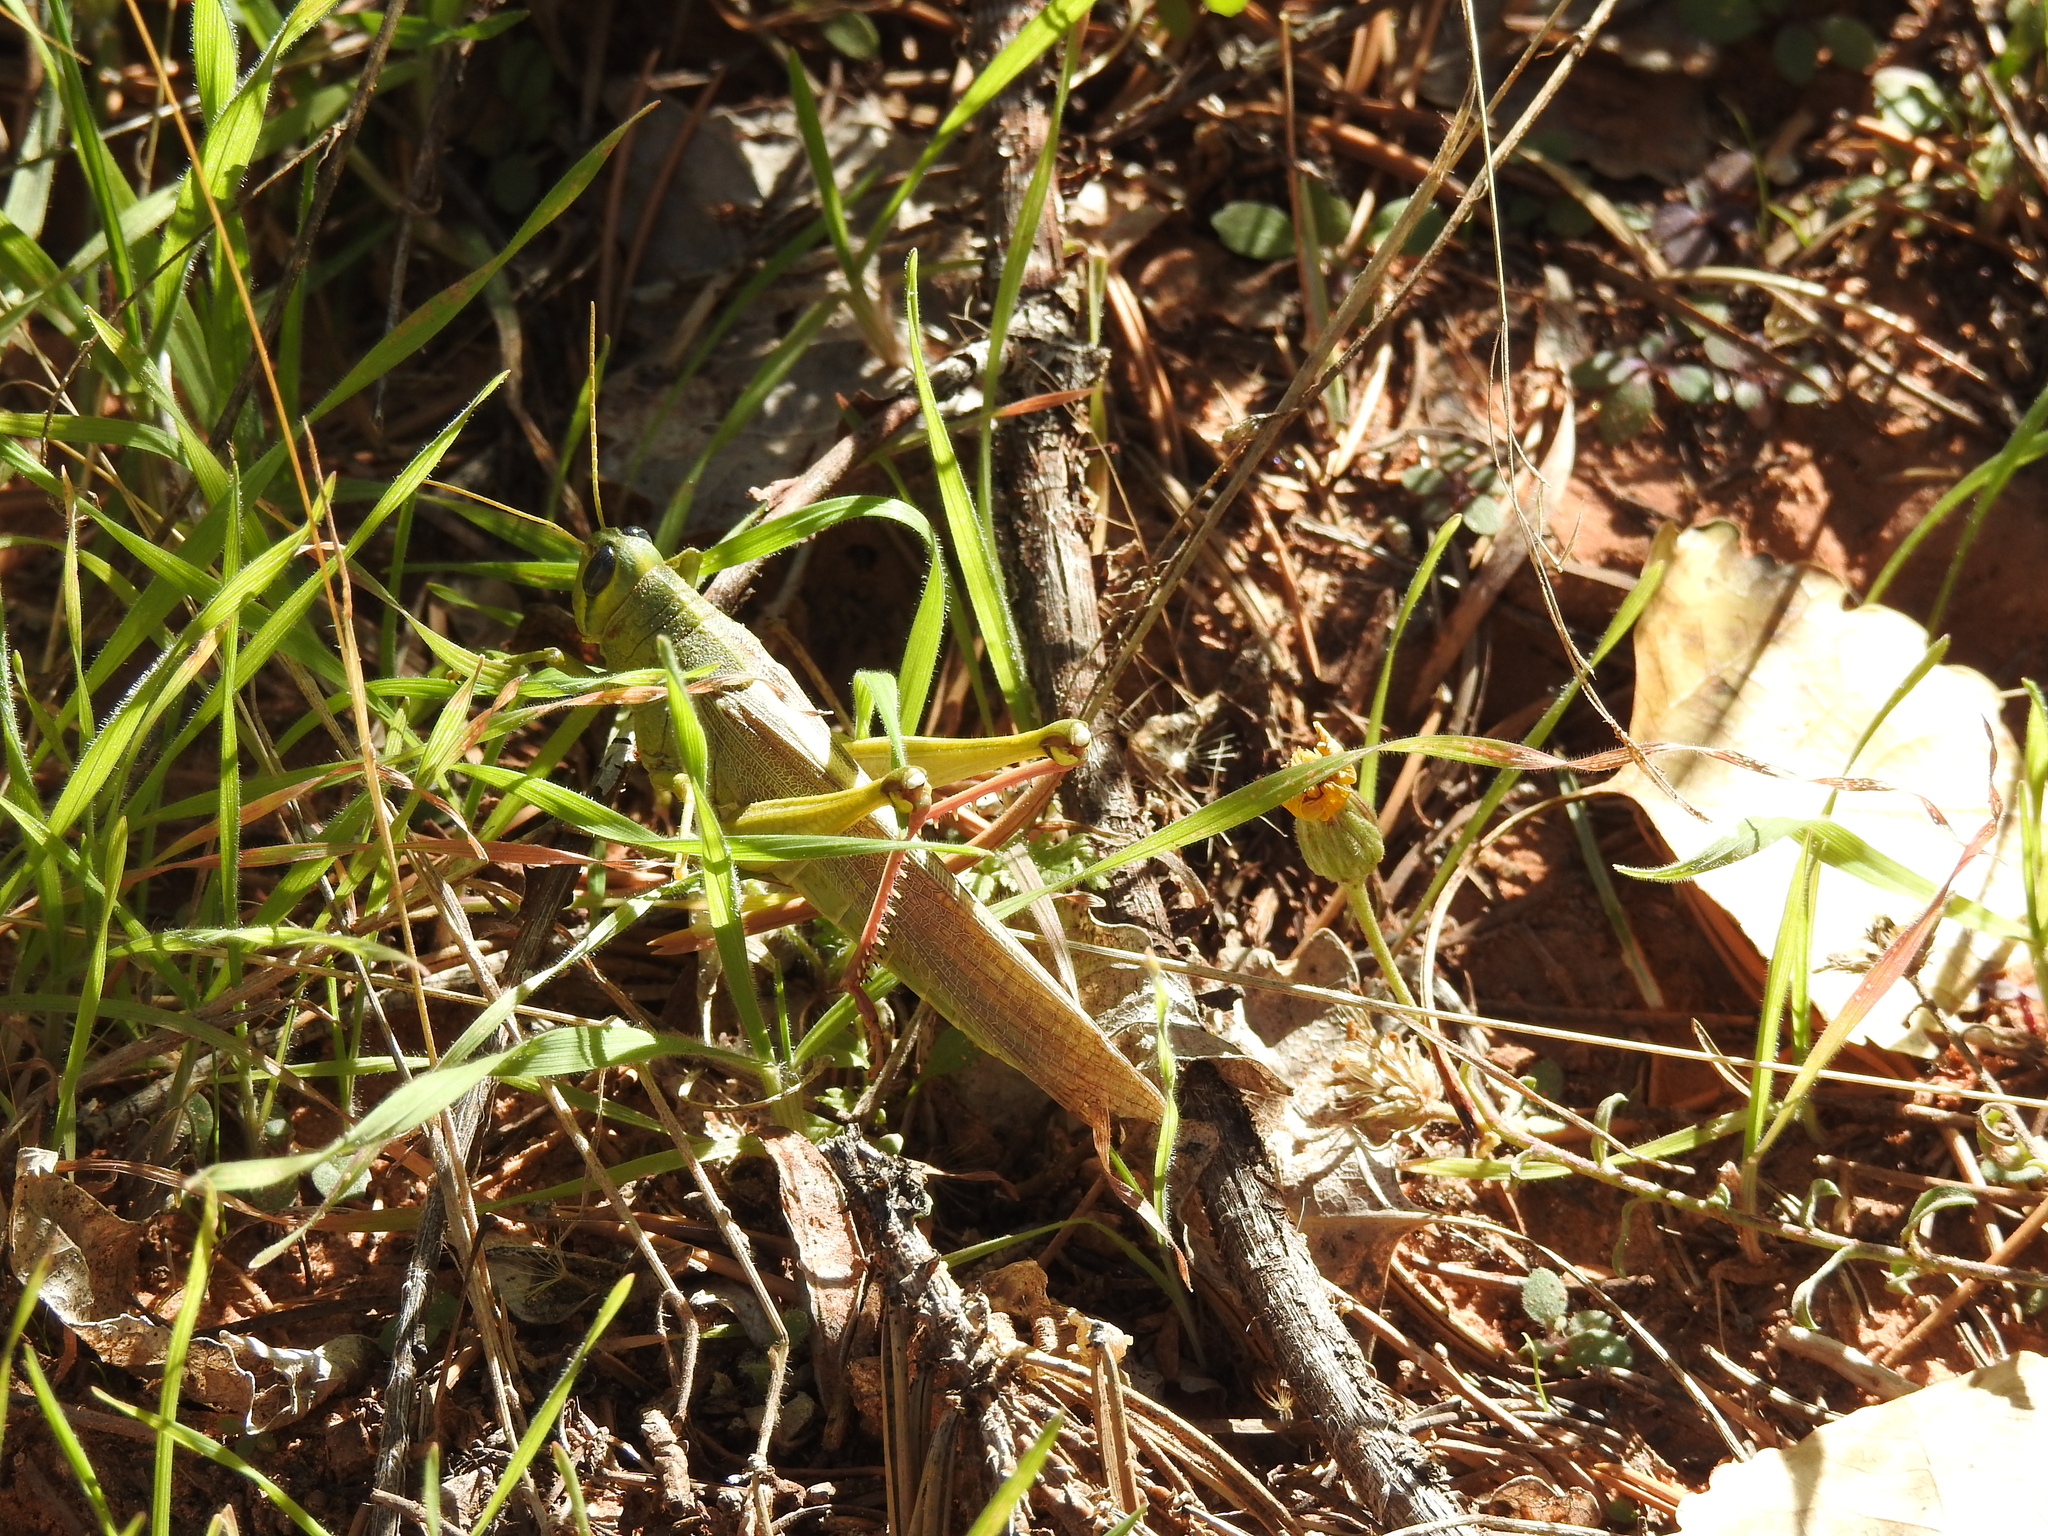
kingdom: Animalia
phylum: Arthropoda
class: Insecta
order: Orthoptera
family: Acrididae
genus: Schistocerca
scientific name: Schistocerca lineata
